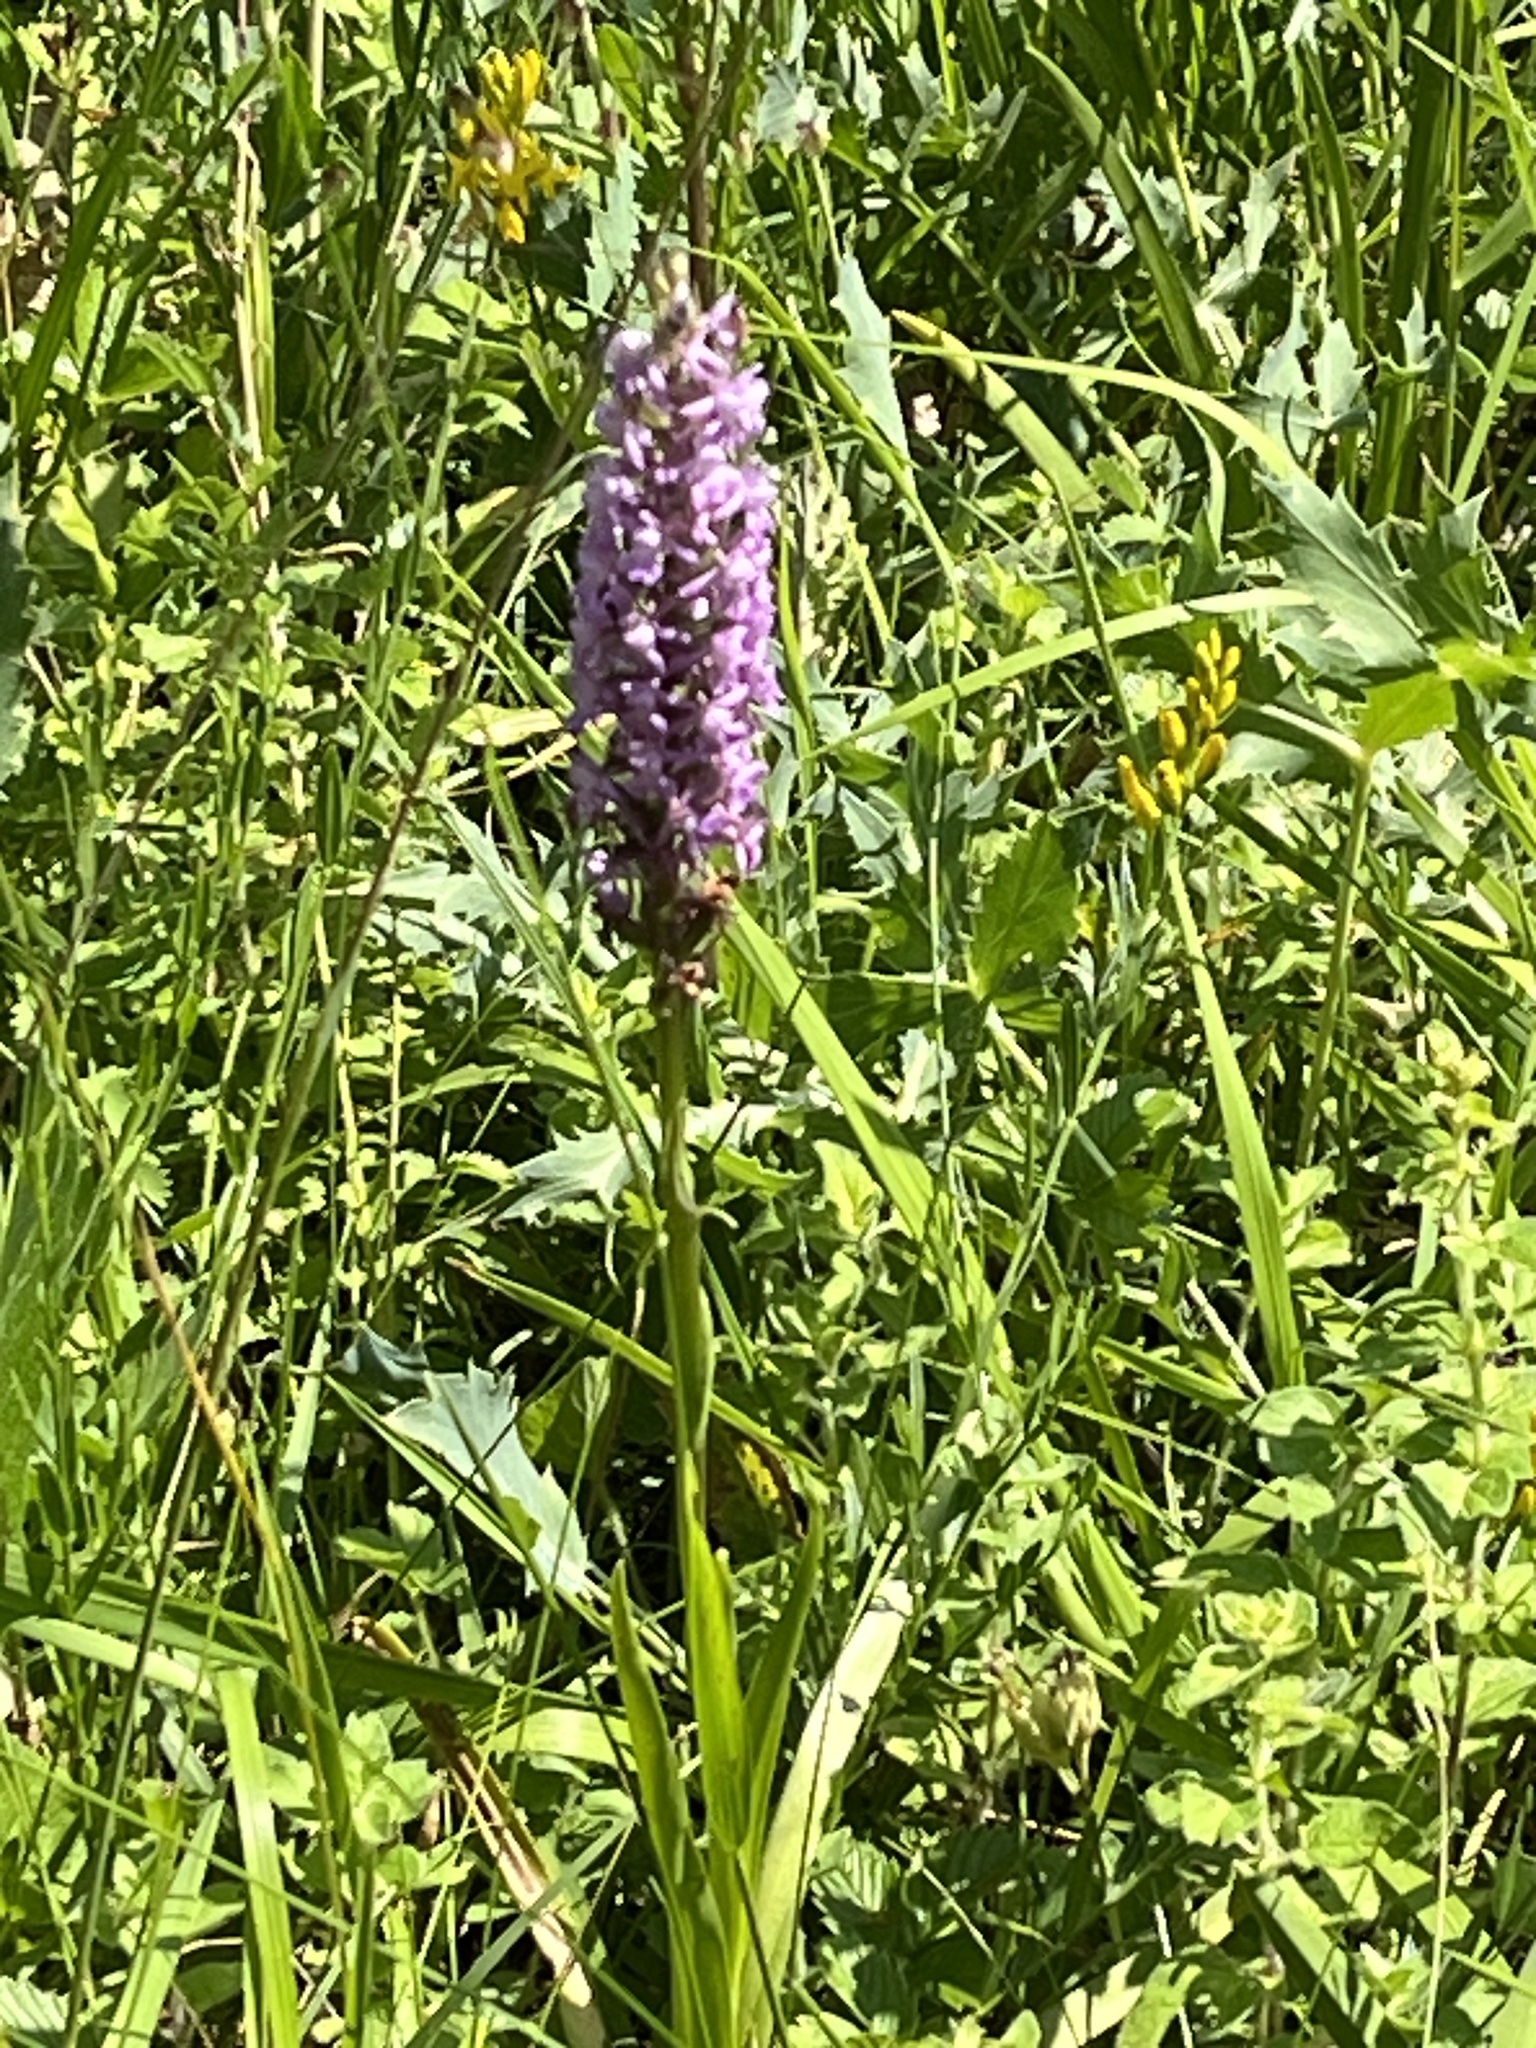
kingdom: Plantae
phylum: Tracheophyta
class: Liliopsida
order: Asparagales
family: Orchidaceae
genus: Gymnadenia
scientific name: Gymnadenia conopsea
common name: Fragrant orchid
